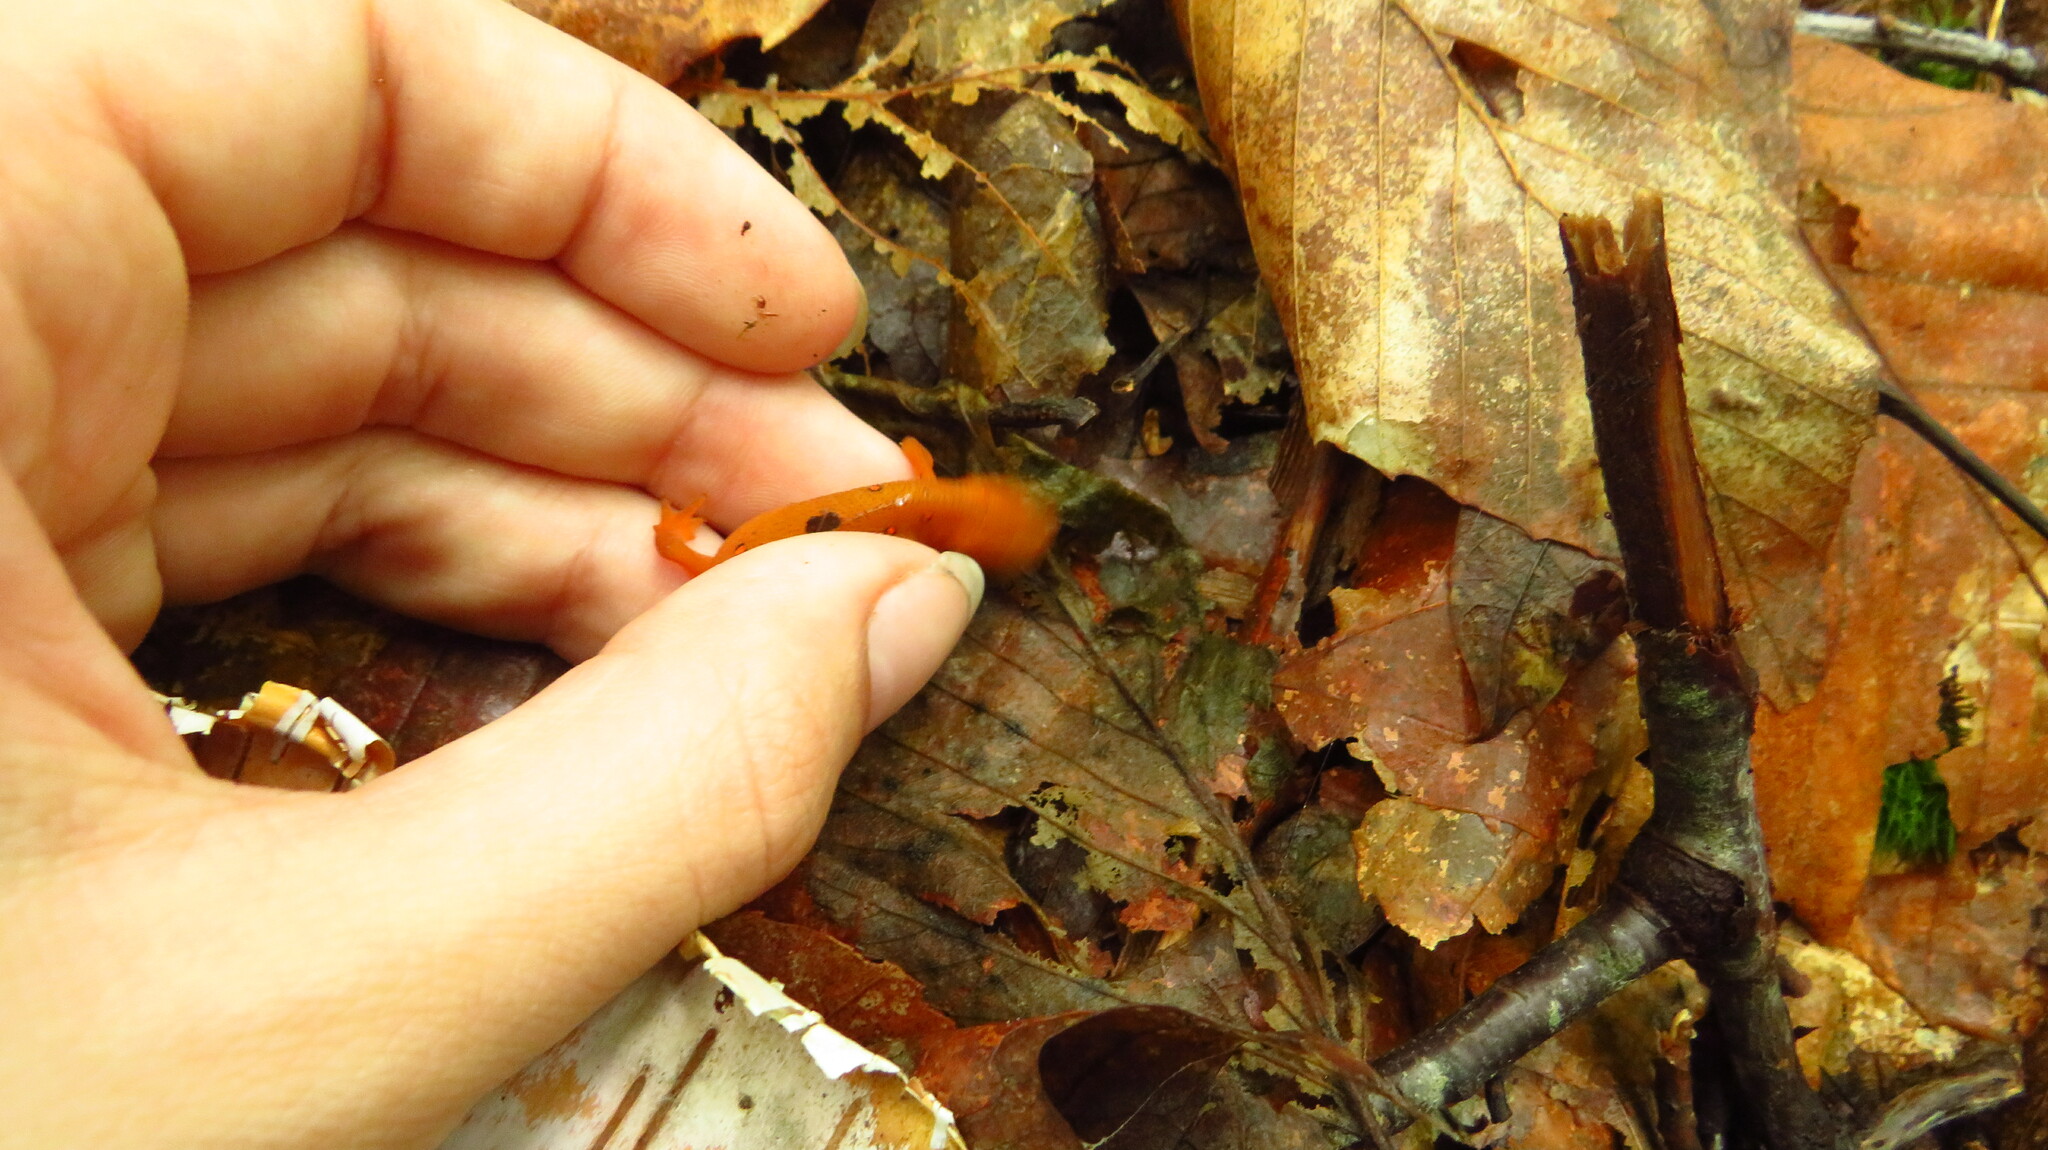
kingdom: Animalia
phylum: Chordata
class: Amphibia
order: Caudata
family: Salamandridae
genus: Notophthalmus
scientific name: Notophthalmus viridescens
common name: Eastern newt
